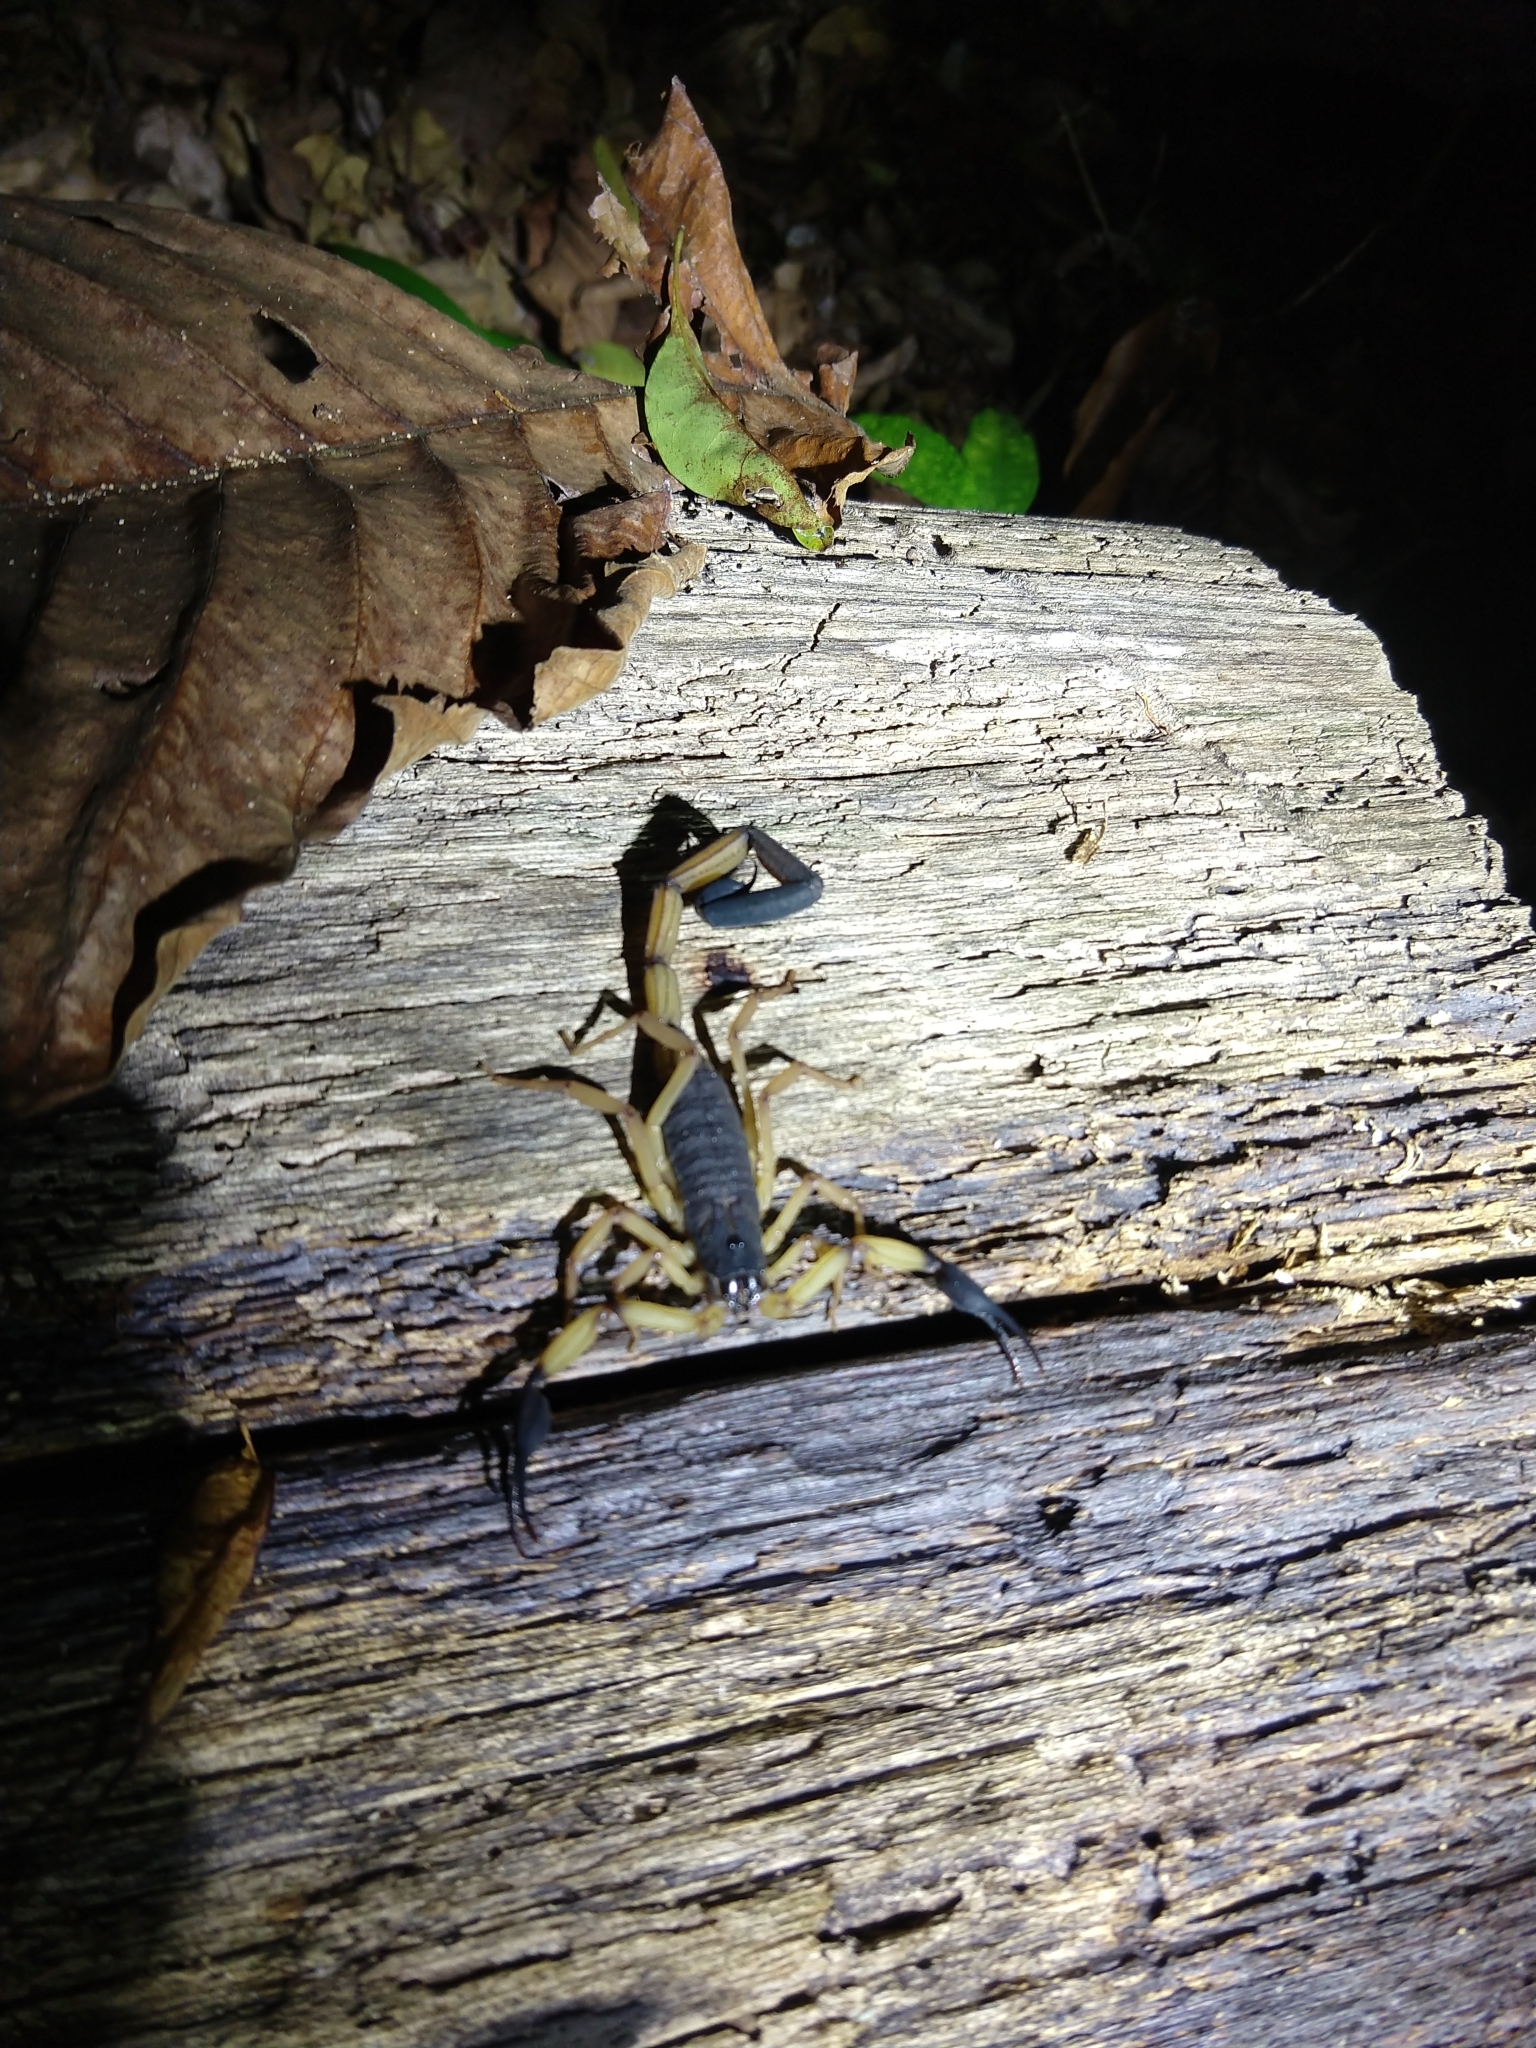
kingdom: Animalia
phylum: Arthropoda
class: Arachnida
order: Scorpiones
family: Buthidae
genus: Centruroides
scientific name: Centruroides bicolor
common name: Scorpions
